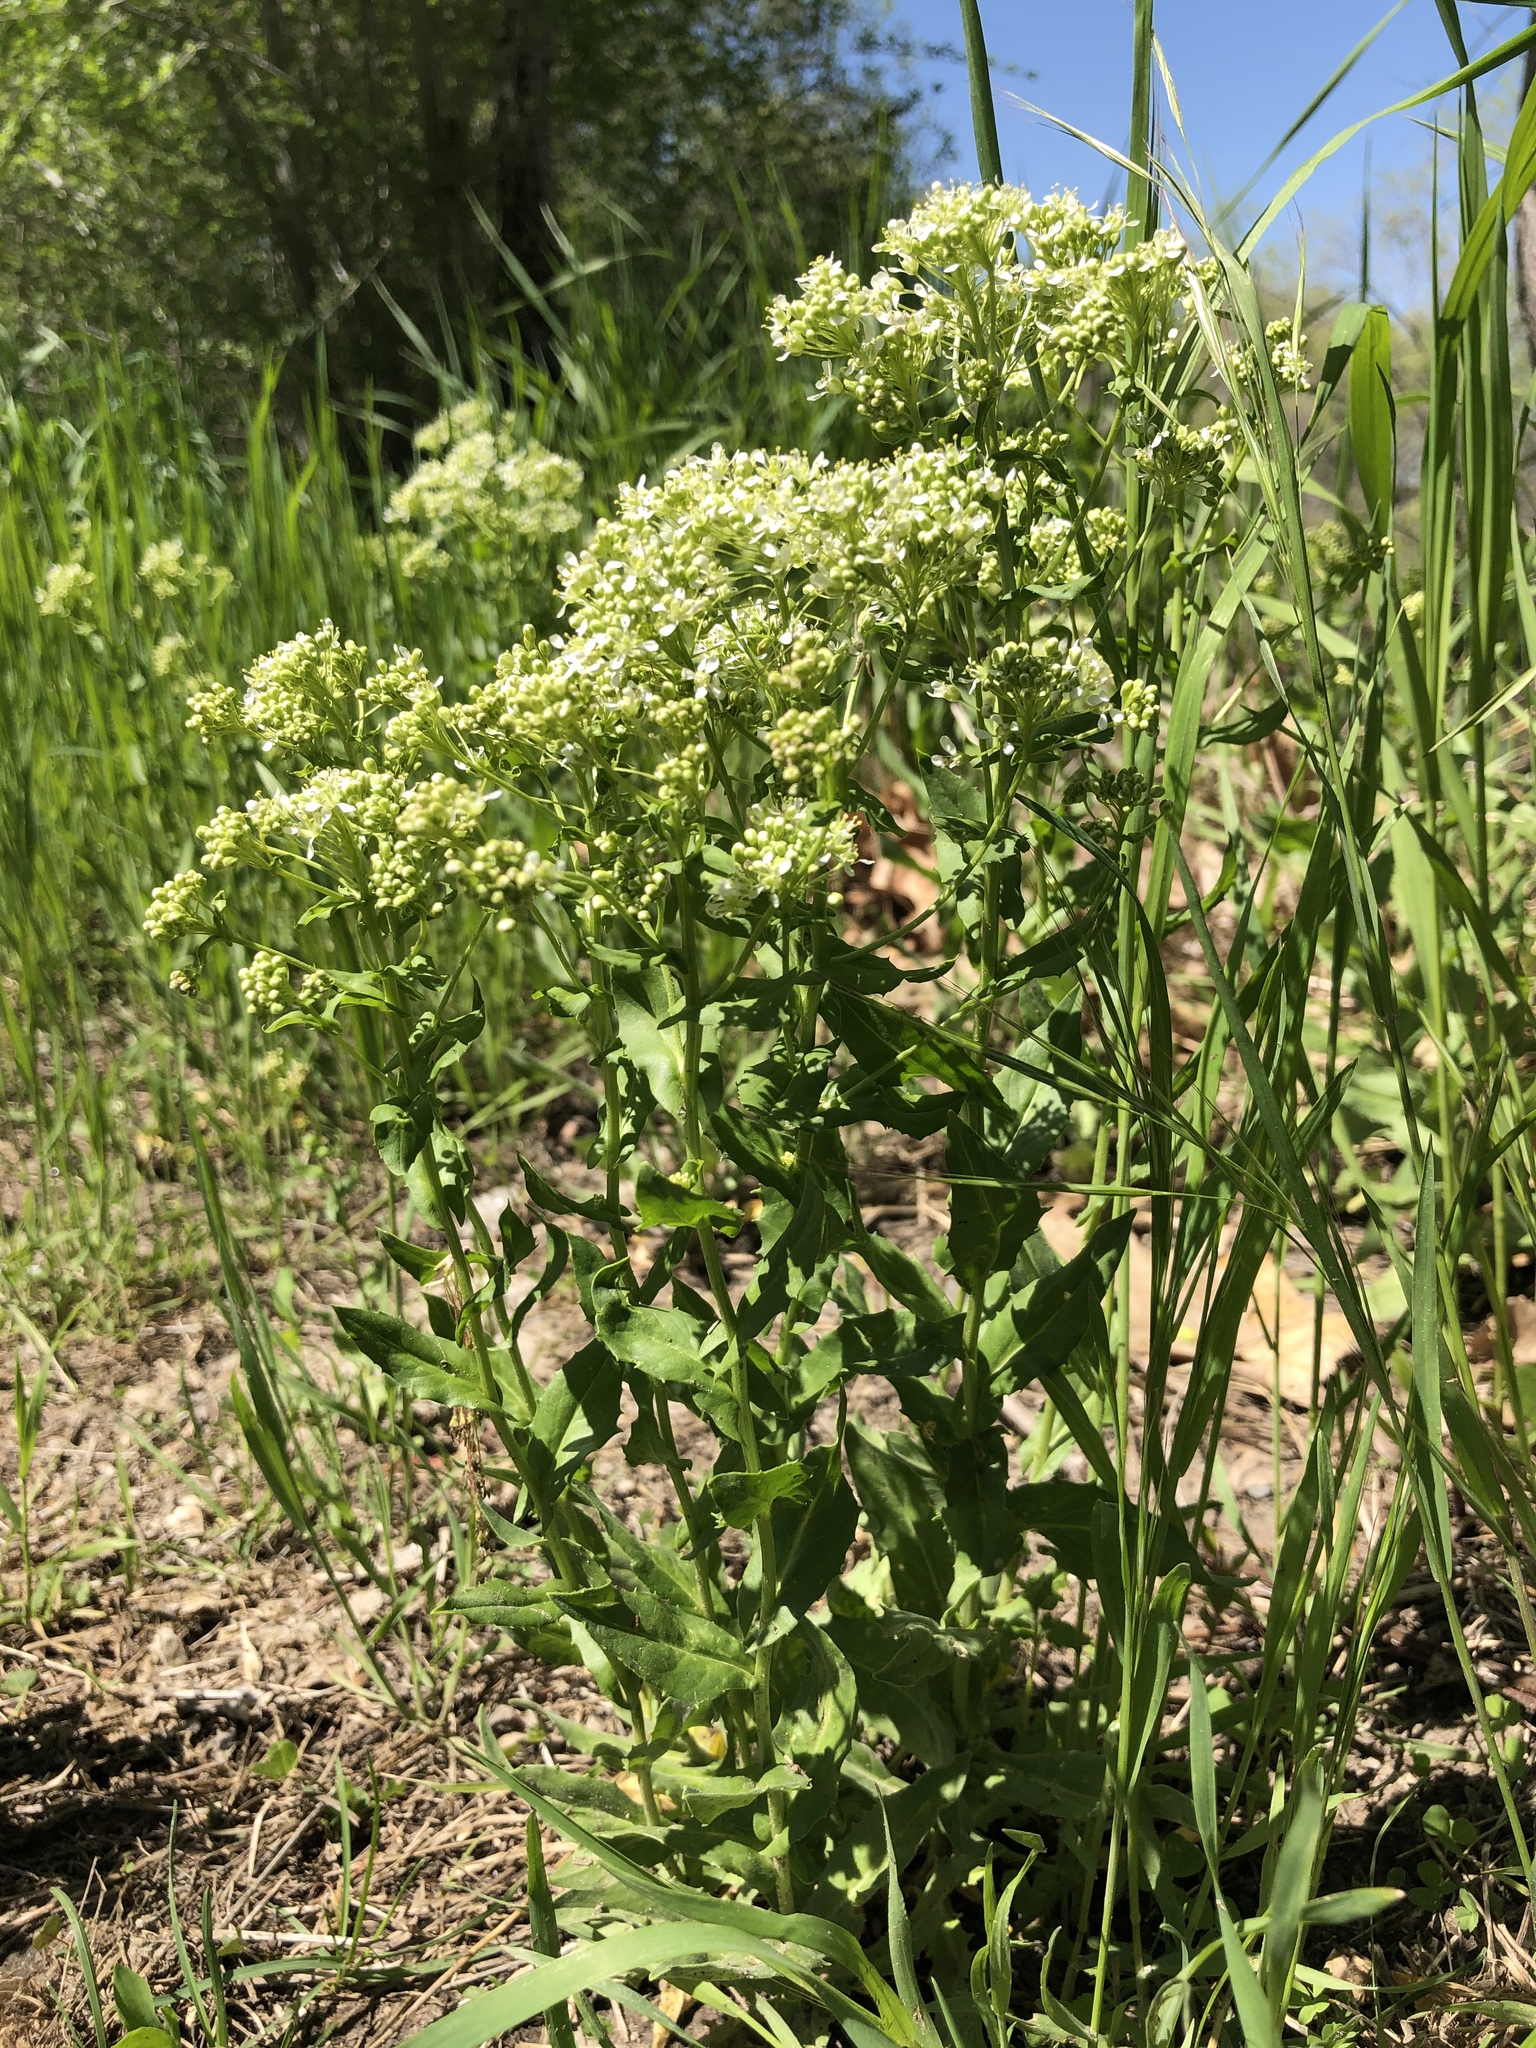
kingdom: Plantae
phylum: Tracheophyta
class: Magnoliopsida
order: Brassicales
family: Brassicaceae
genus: Lepidium
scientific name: Lepidium draba
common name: Hoary cress
